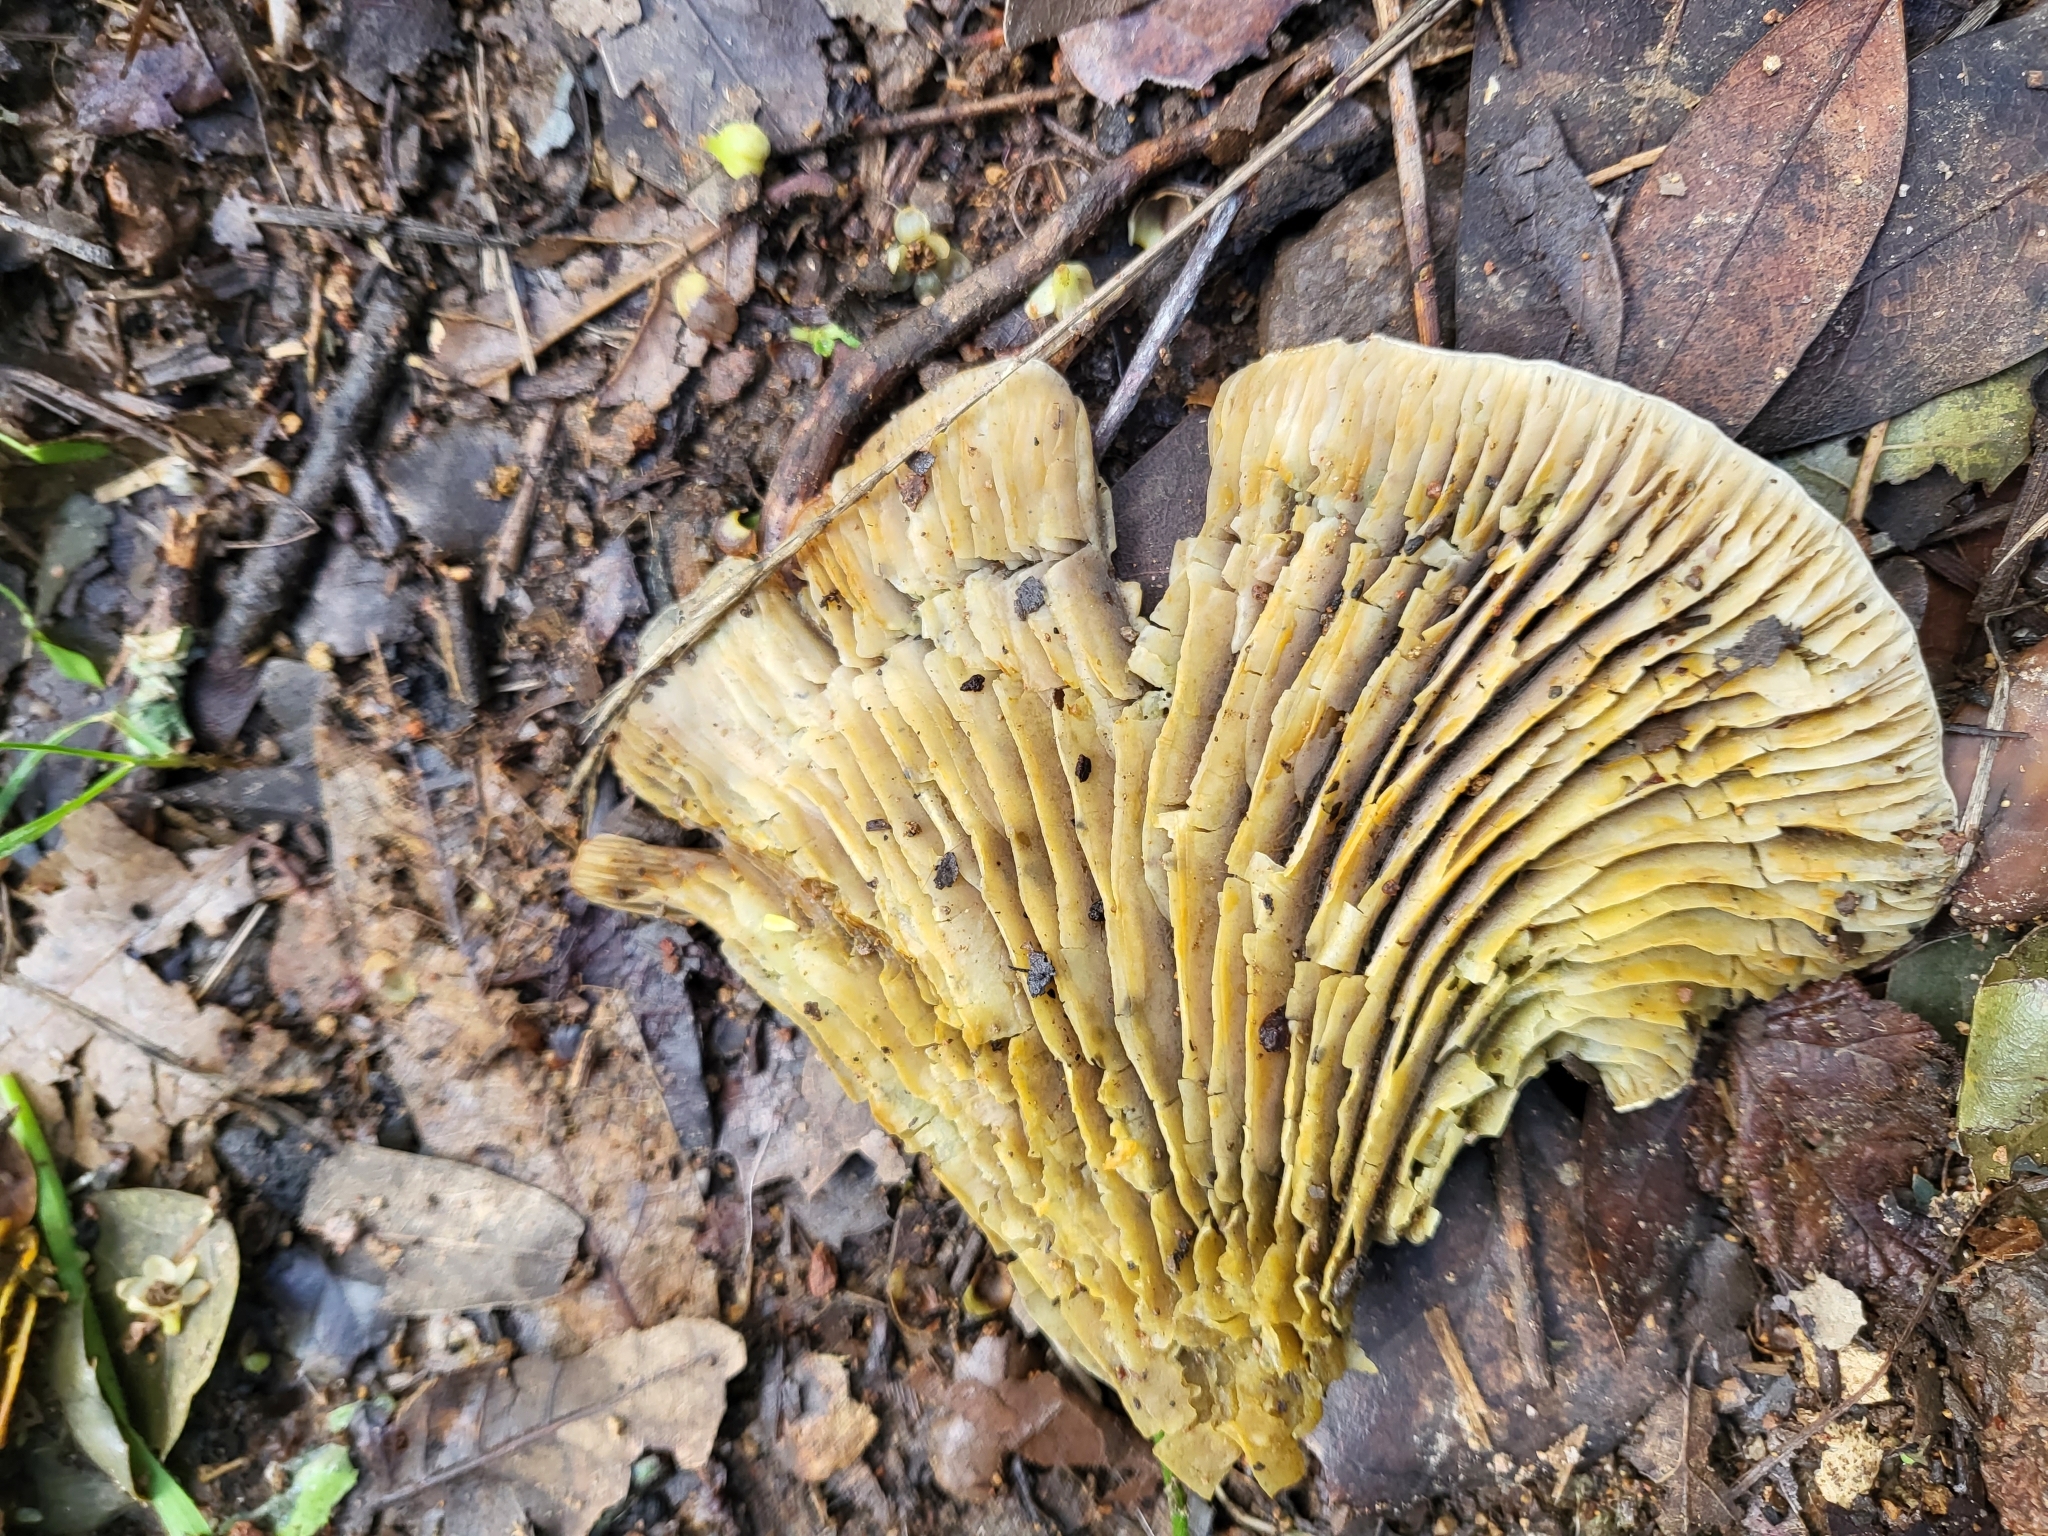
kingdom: Fungi
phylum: Basidiomycota
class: Agaricomycetes
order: Agaricales
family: Omphalotaceae
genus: Omphalotus
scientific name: Omphalotus olivascens
